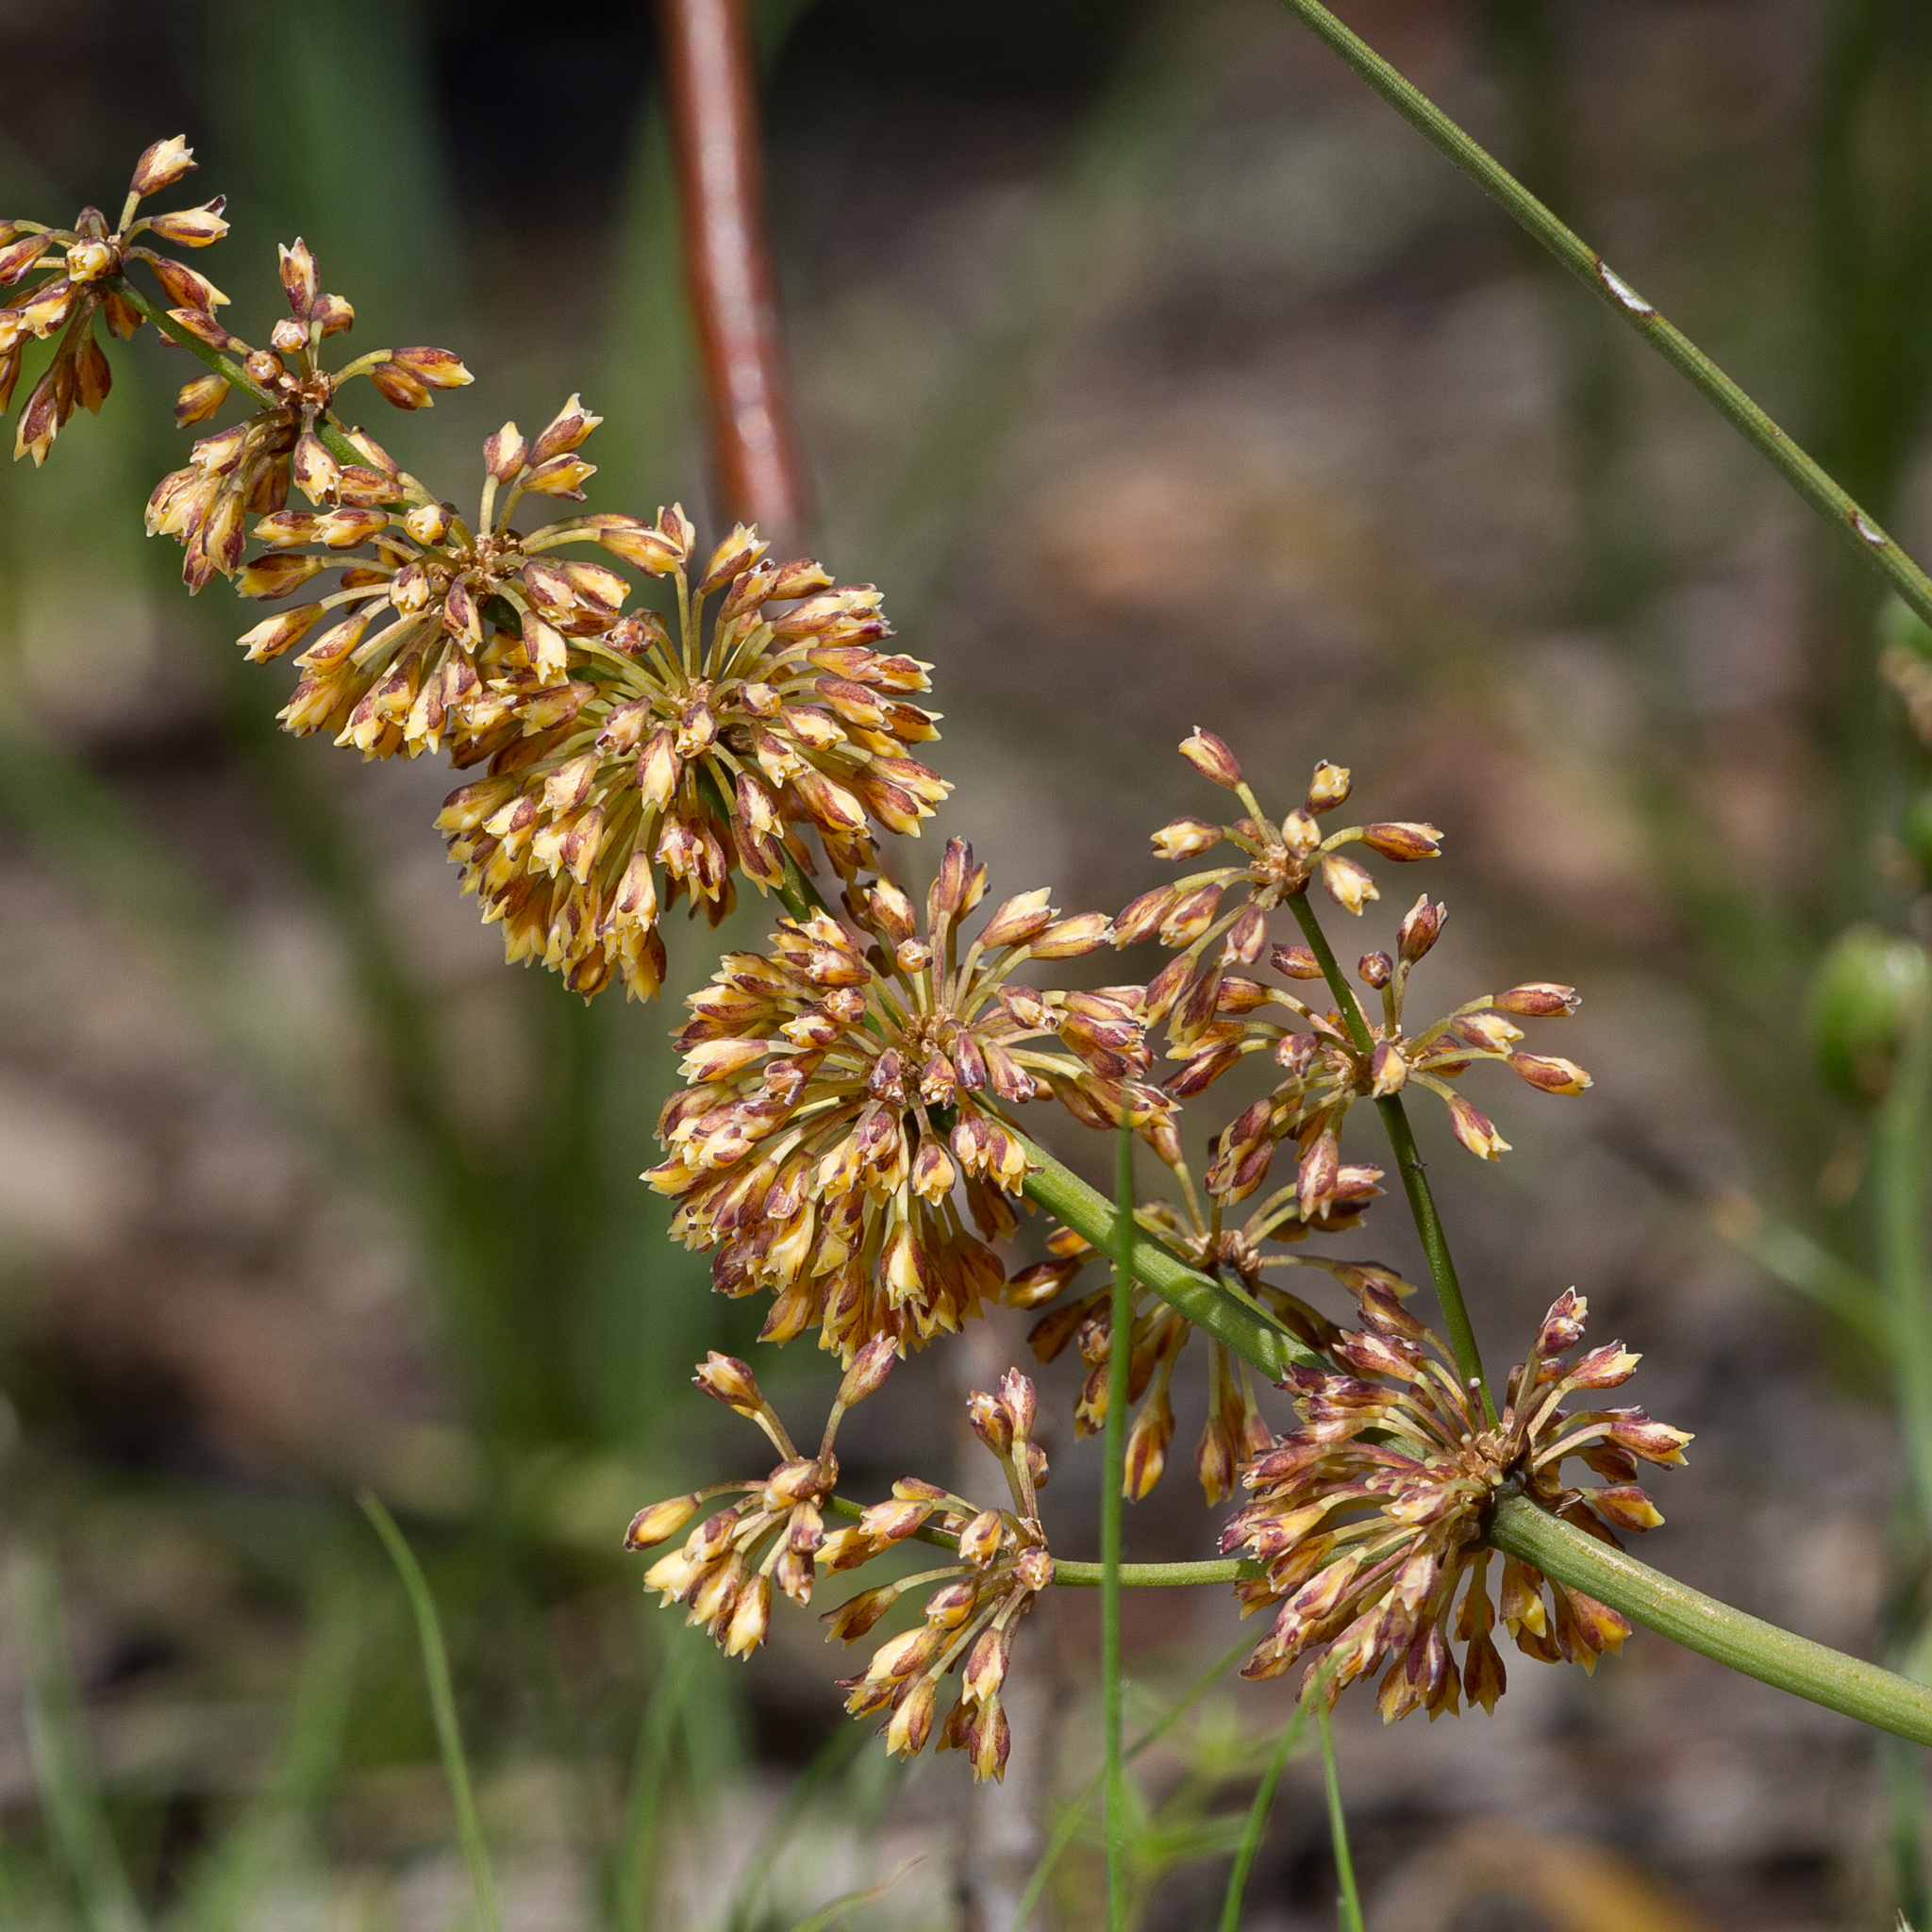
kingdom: Plantae
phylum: Tracheophyta
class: Liliopsida
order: Asparagales
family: Asparagaceae
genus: Lomandra
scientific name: Lomandra multiflora
